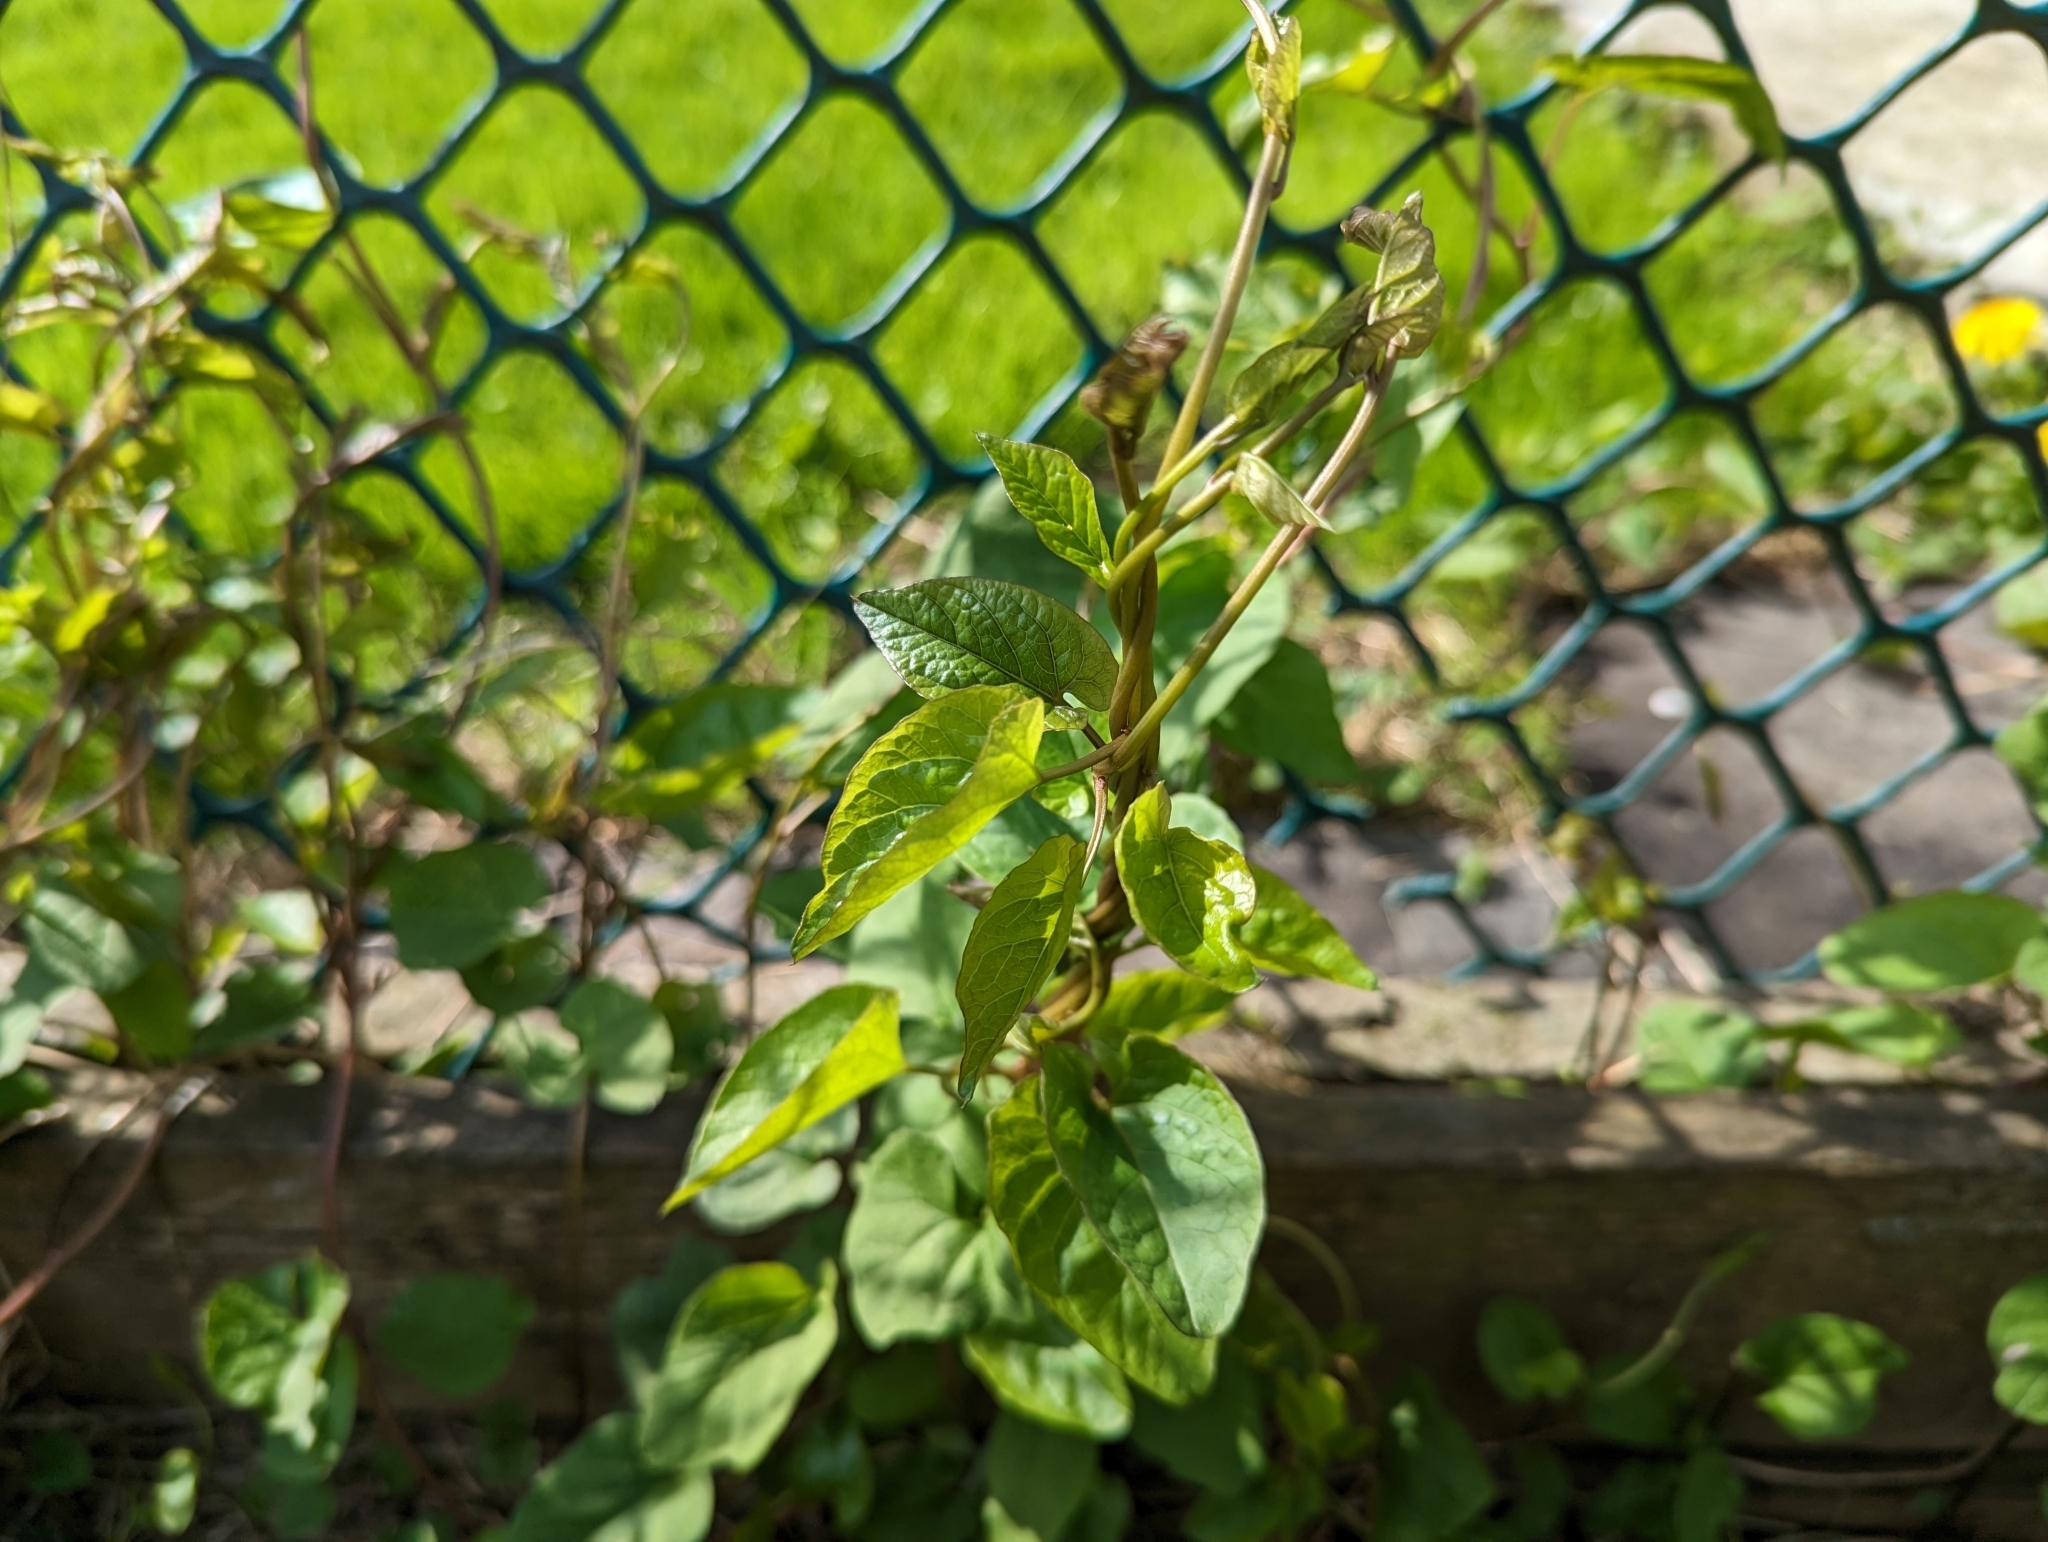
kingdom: Plantae
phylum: Tracheophyta
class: Magnoliopsida
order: Solanales
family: Convolvulaceae
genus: Convolvulus
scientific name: Convolvulus arvensis
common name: Field bindweed
